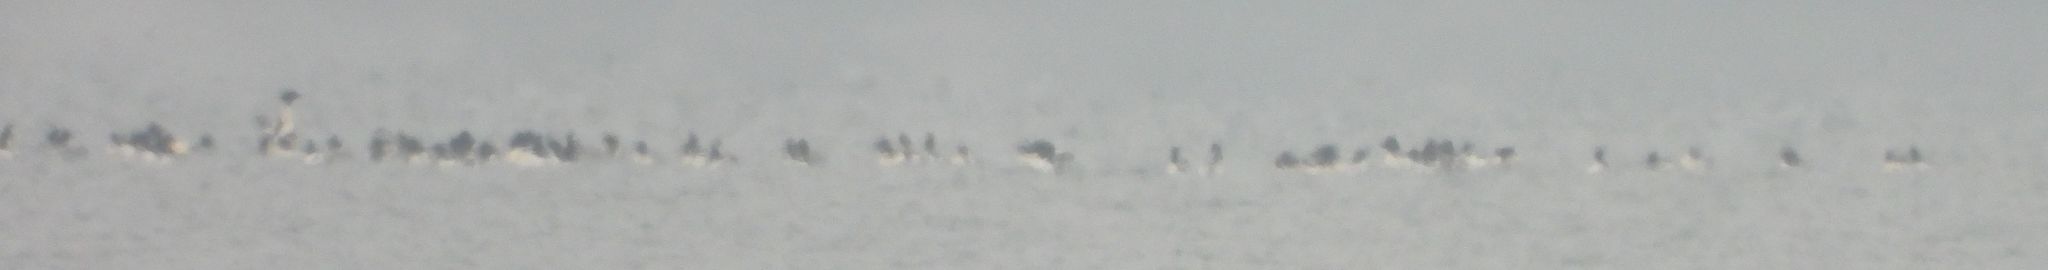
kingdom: Animalia
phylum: Chordata
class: Aves
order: Anseriformes
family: Anatidae
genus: Mergus
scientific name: Mergus merganser
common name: Common merganser
